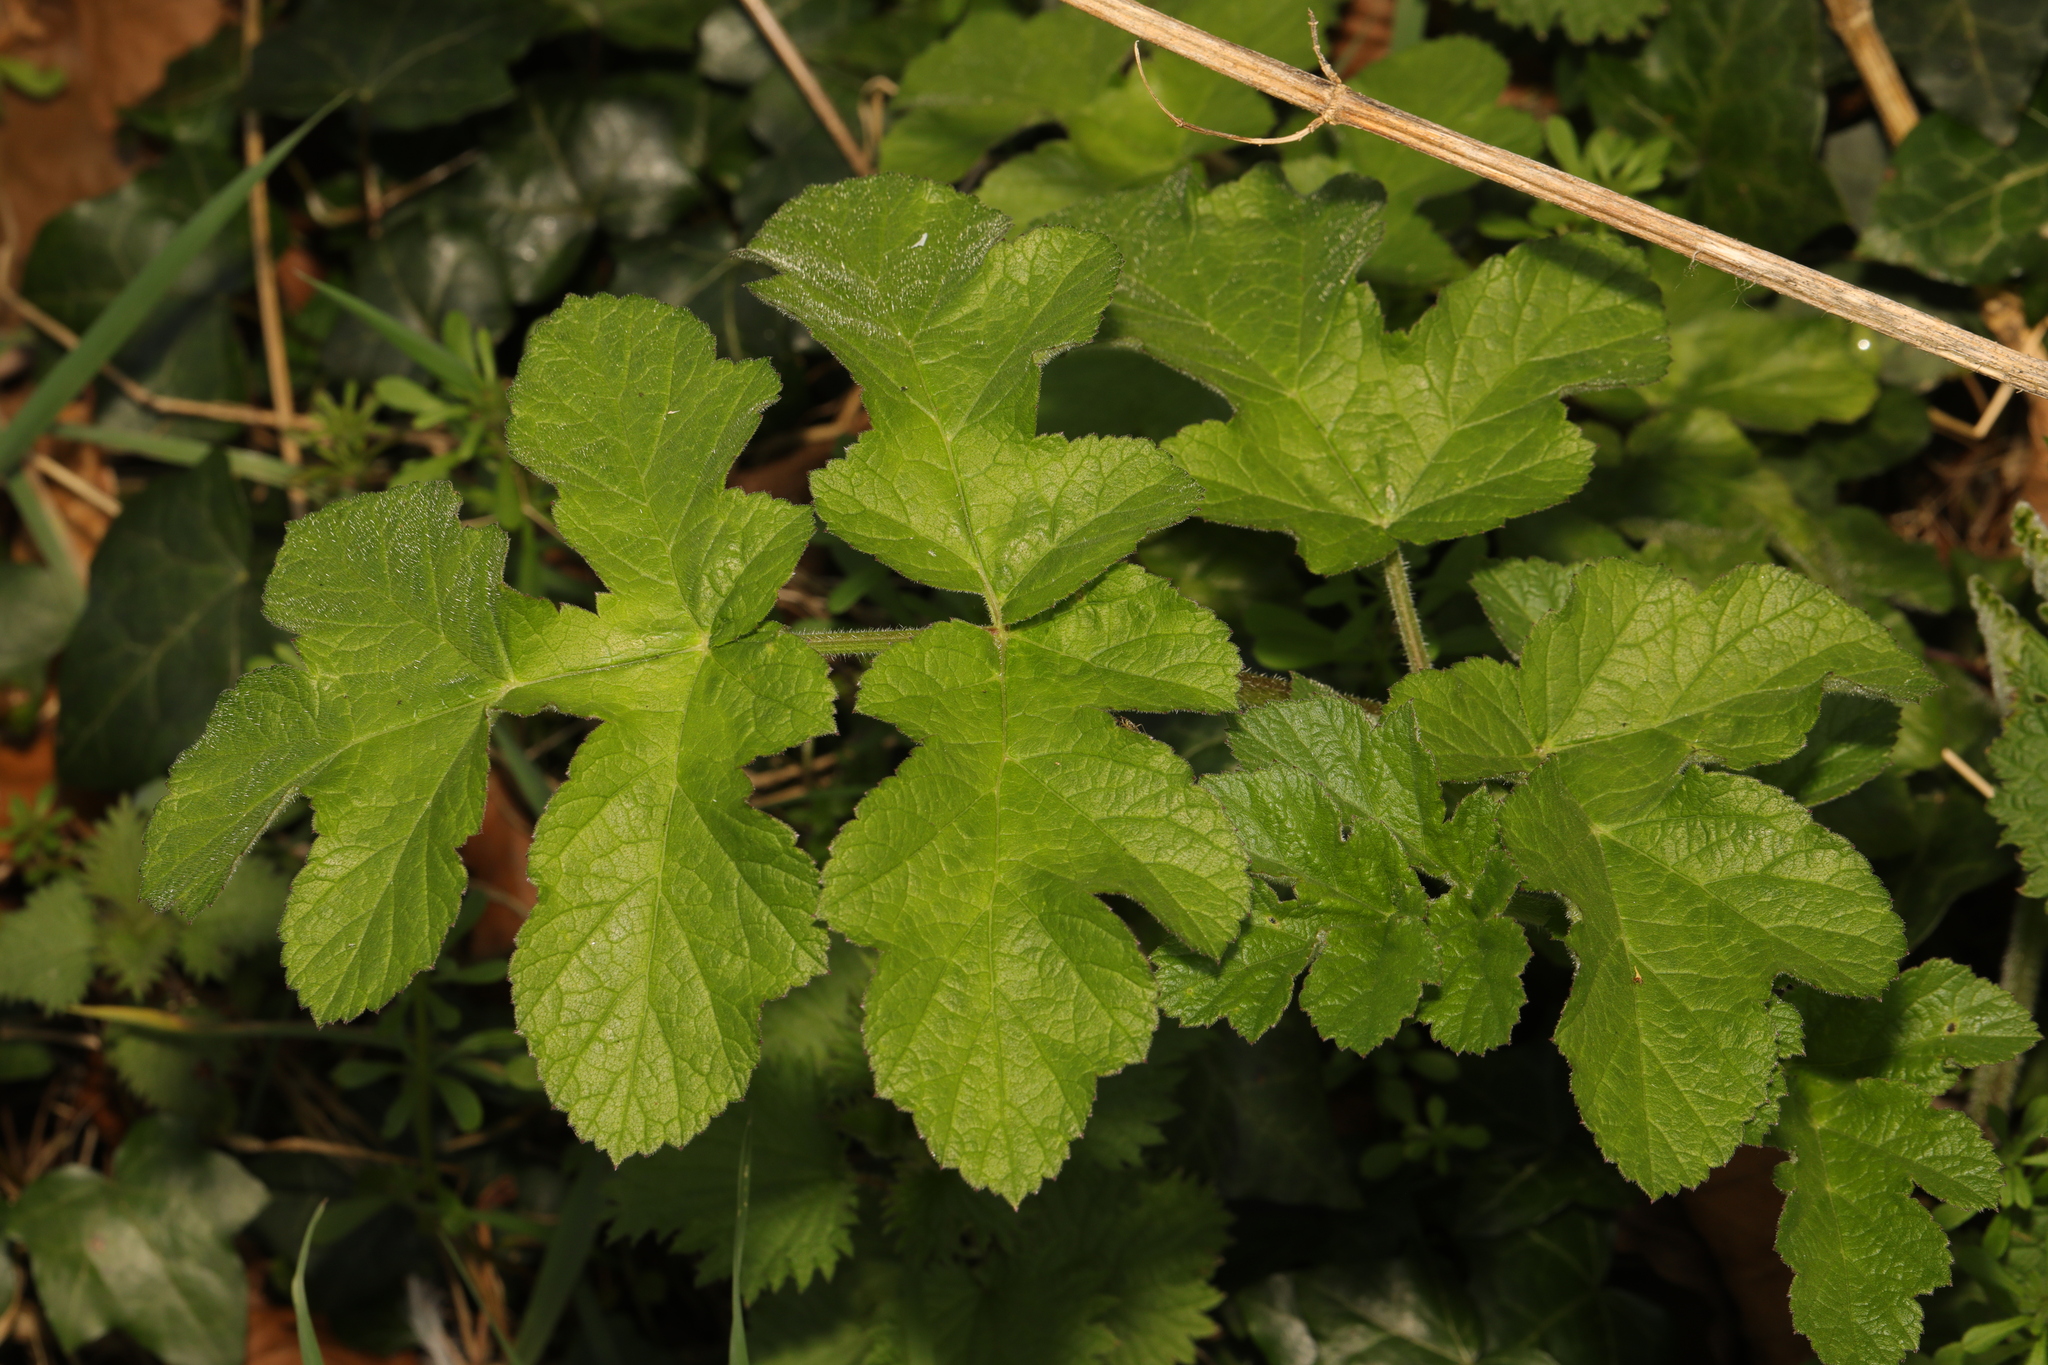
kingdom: Plantae
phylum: Tracheophyta
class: Magnoliopsida
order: Apiales
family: Apiaceae
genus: Heracleum
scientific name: Heracleum sphondylium
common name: Hogweed
